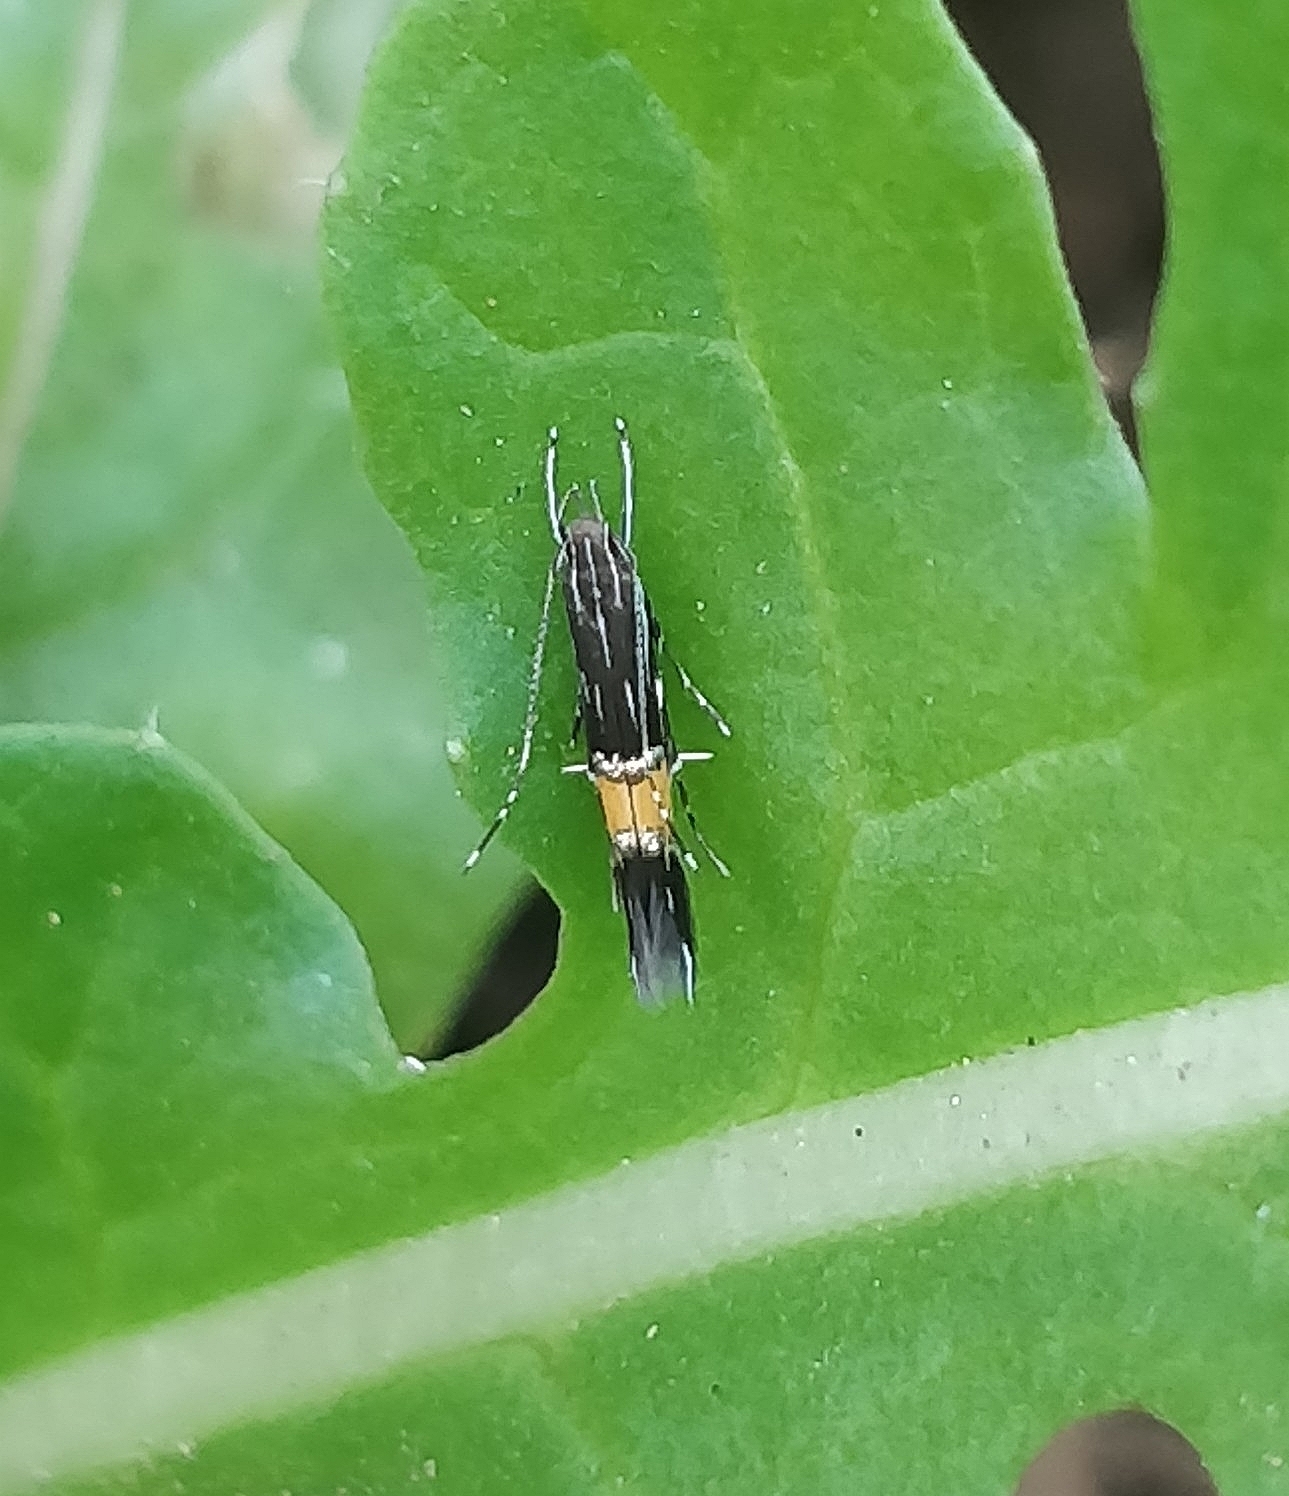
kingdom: Animalia
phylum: Arthropoda
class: Insecta
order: Lepidoptera
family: Cosmopterigidae
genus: Cosmopterix
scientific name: Cosmopterix pulchrimella
